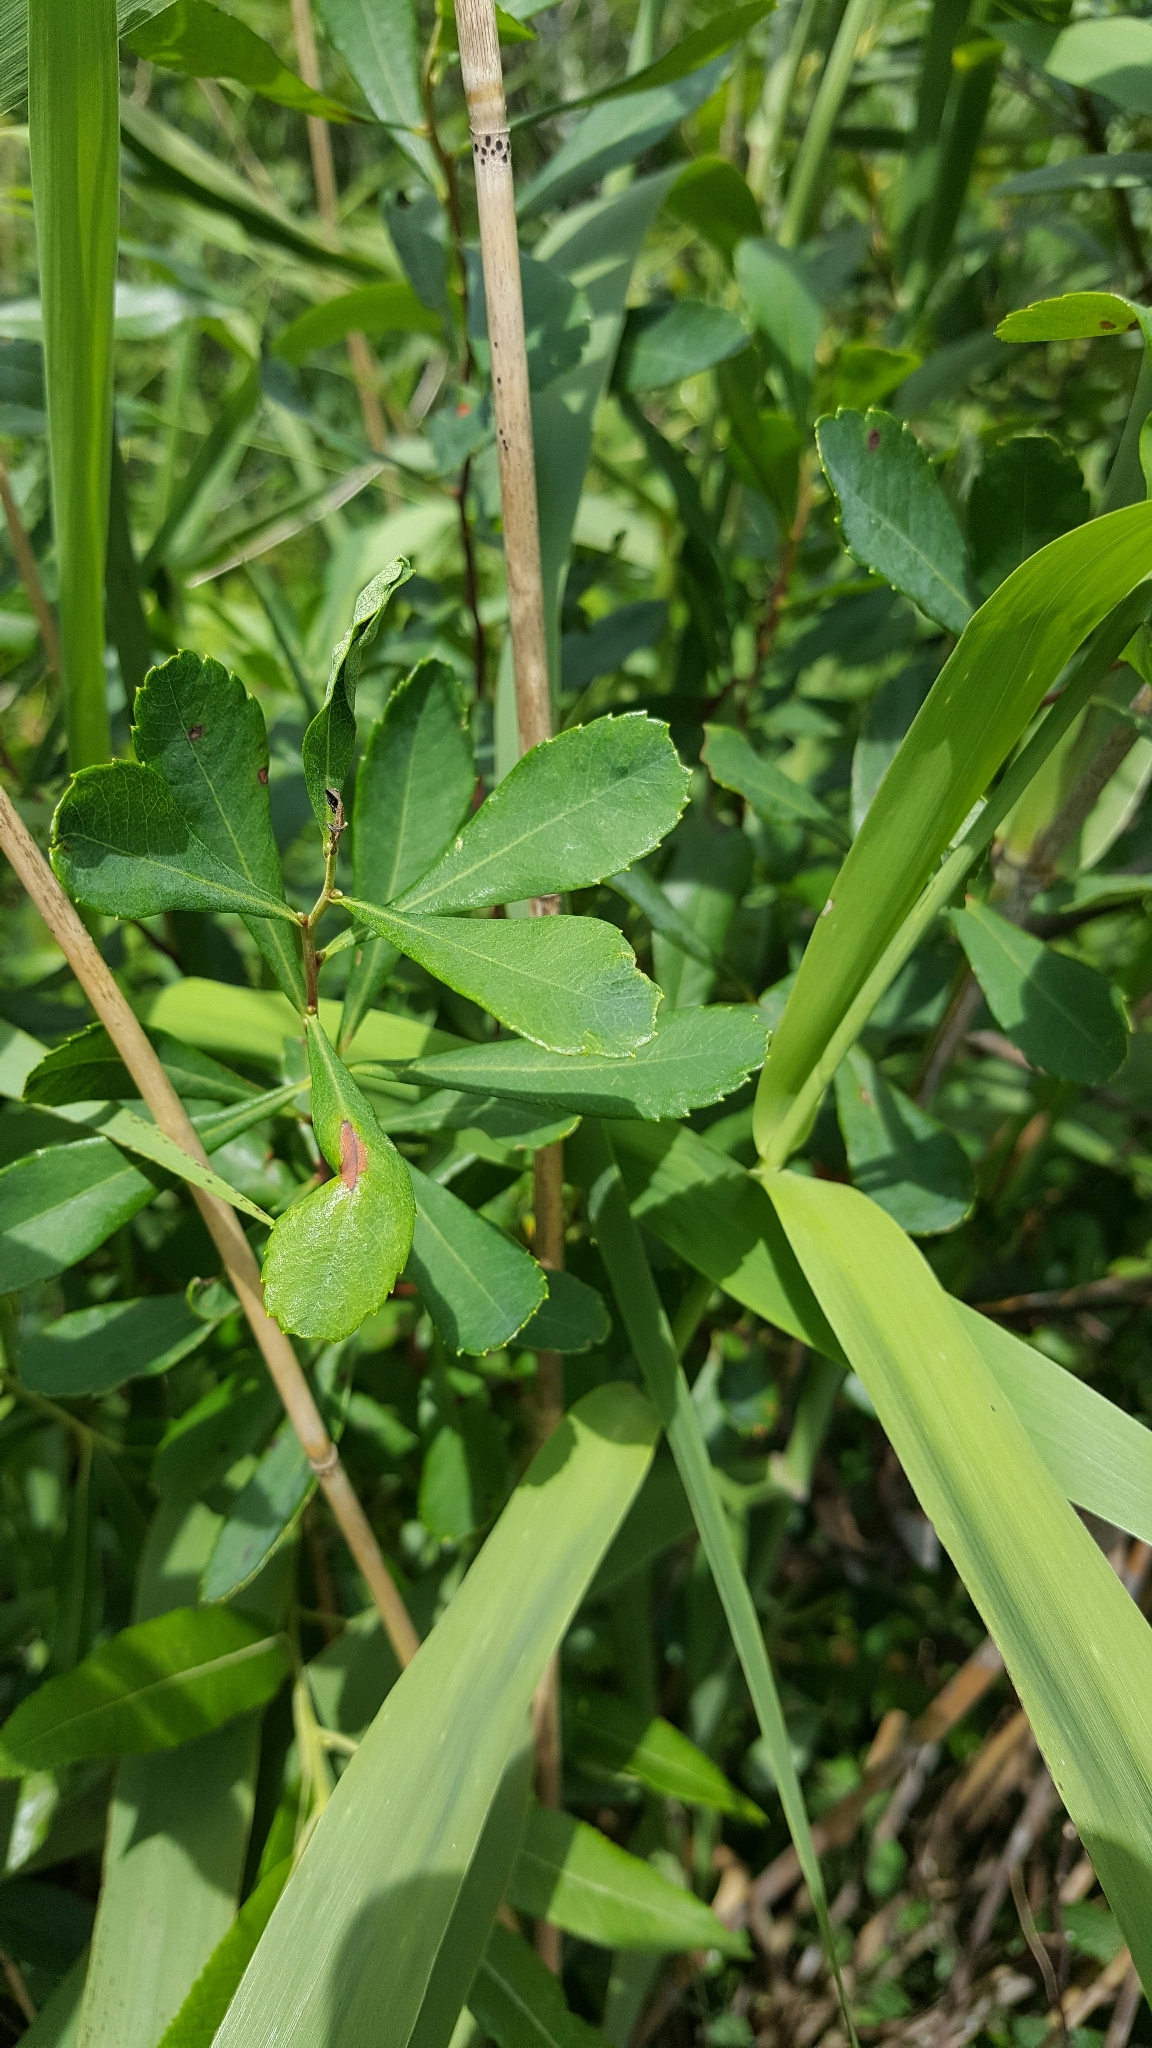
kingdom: Plantae
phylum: Tracheophyta
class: Magnoliopsida
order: Fagales
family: Myricaceae
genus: Myrica
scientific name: Myrica gale
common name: Sweet gale
